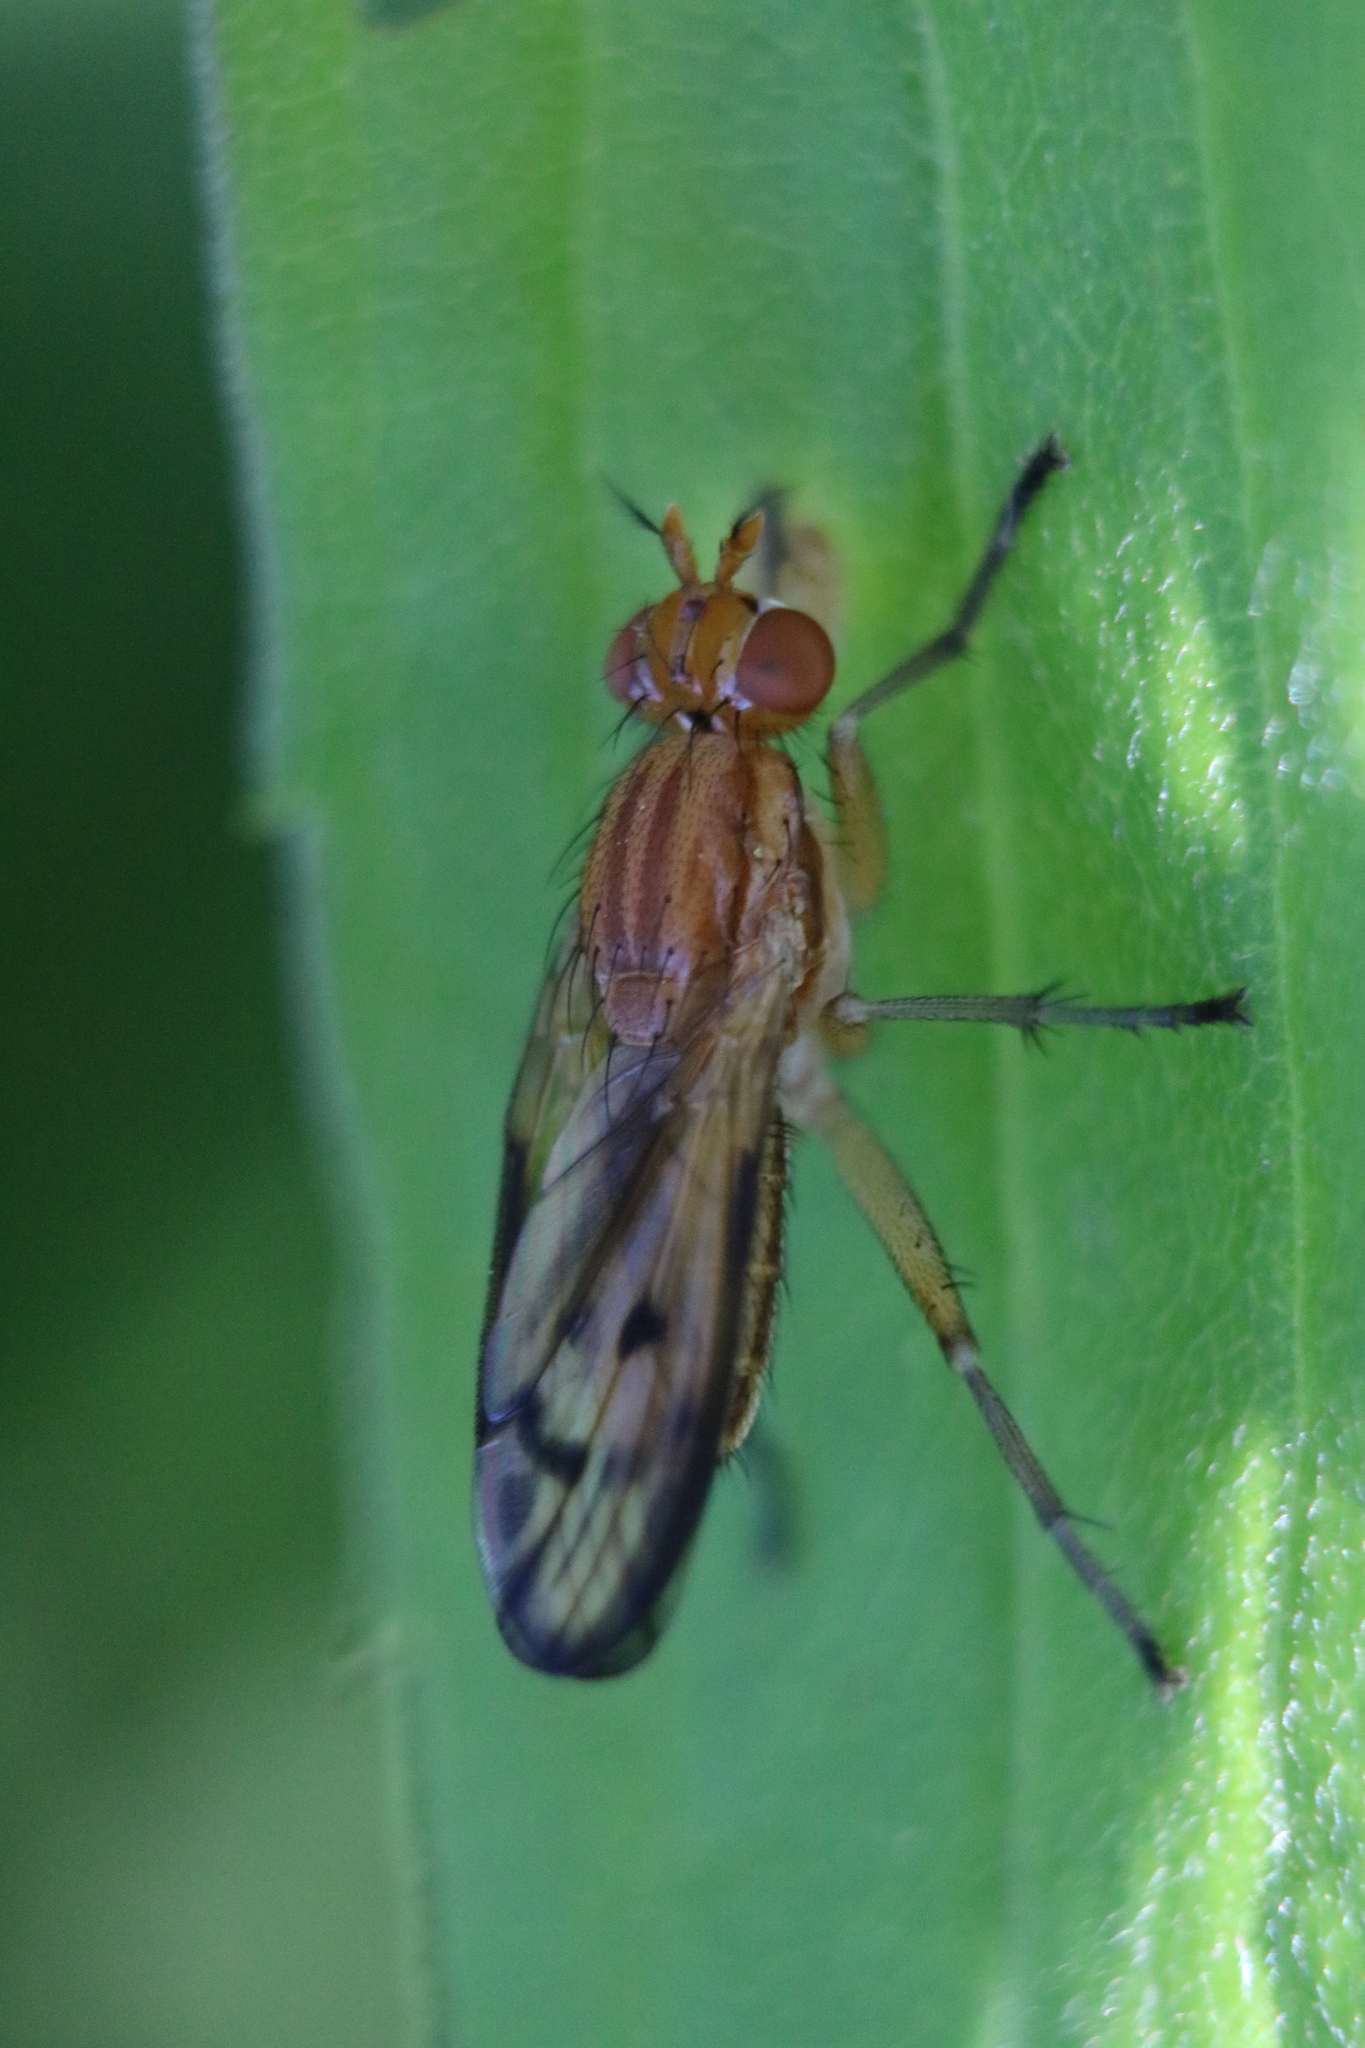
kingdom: Animalia
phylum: Arthropoda
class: Insecta
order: Diptera
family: Sciomyzidae
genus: Tetanocera
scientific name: Tetanocera plebeja
